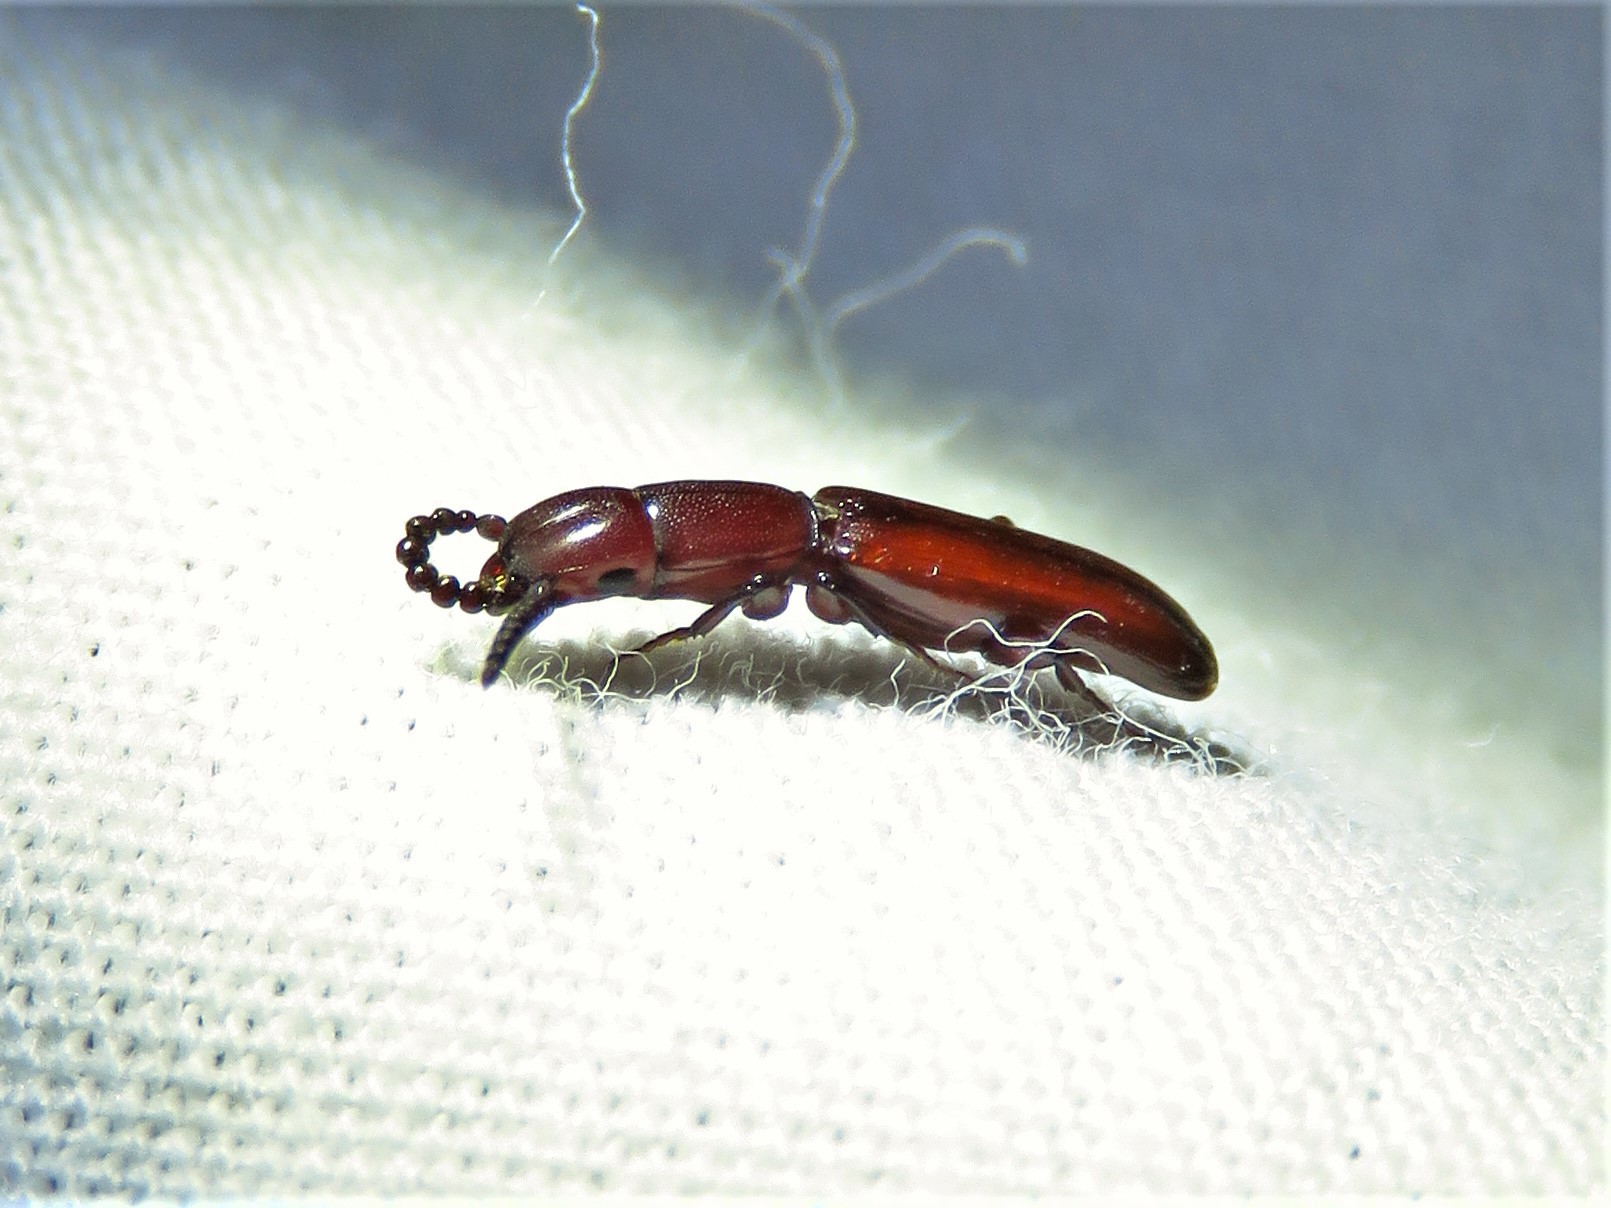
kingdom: Animalia
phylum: Arthropoda
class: Insecta
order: Coleoptera
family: Passandridae
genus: Taphroscelidia
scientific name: Taphroscelidia linearis
